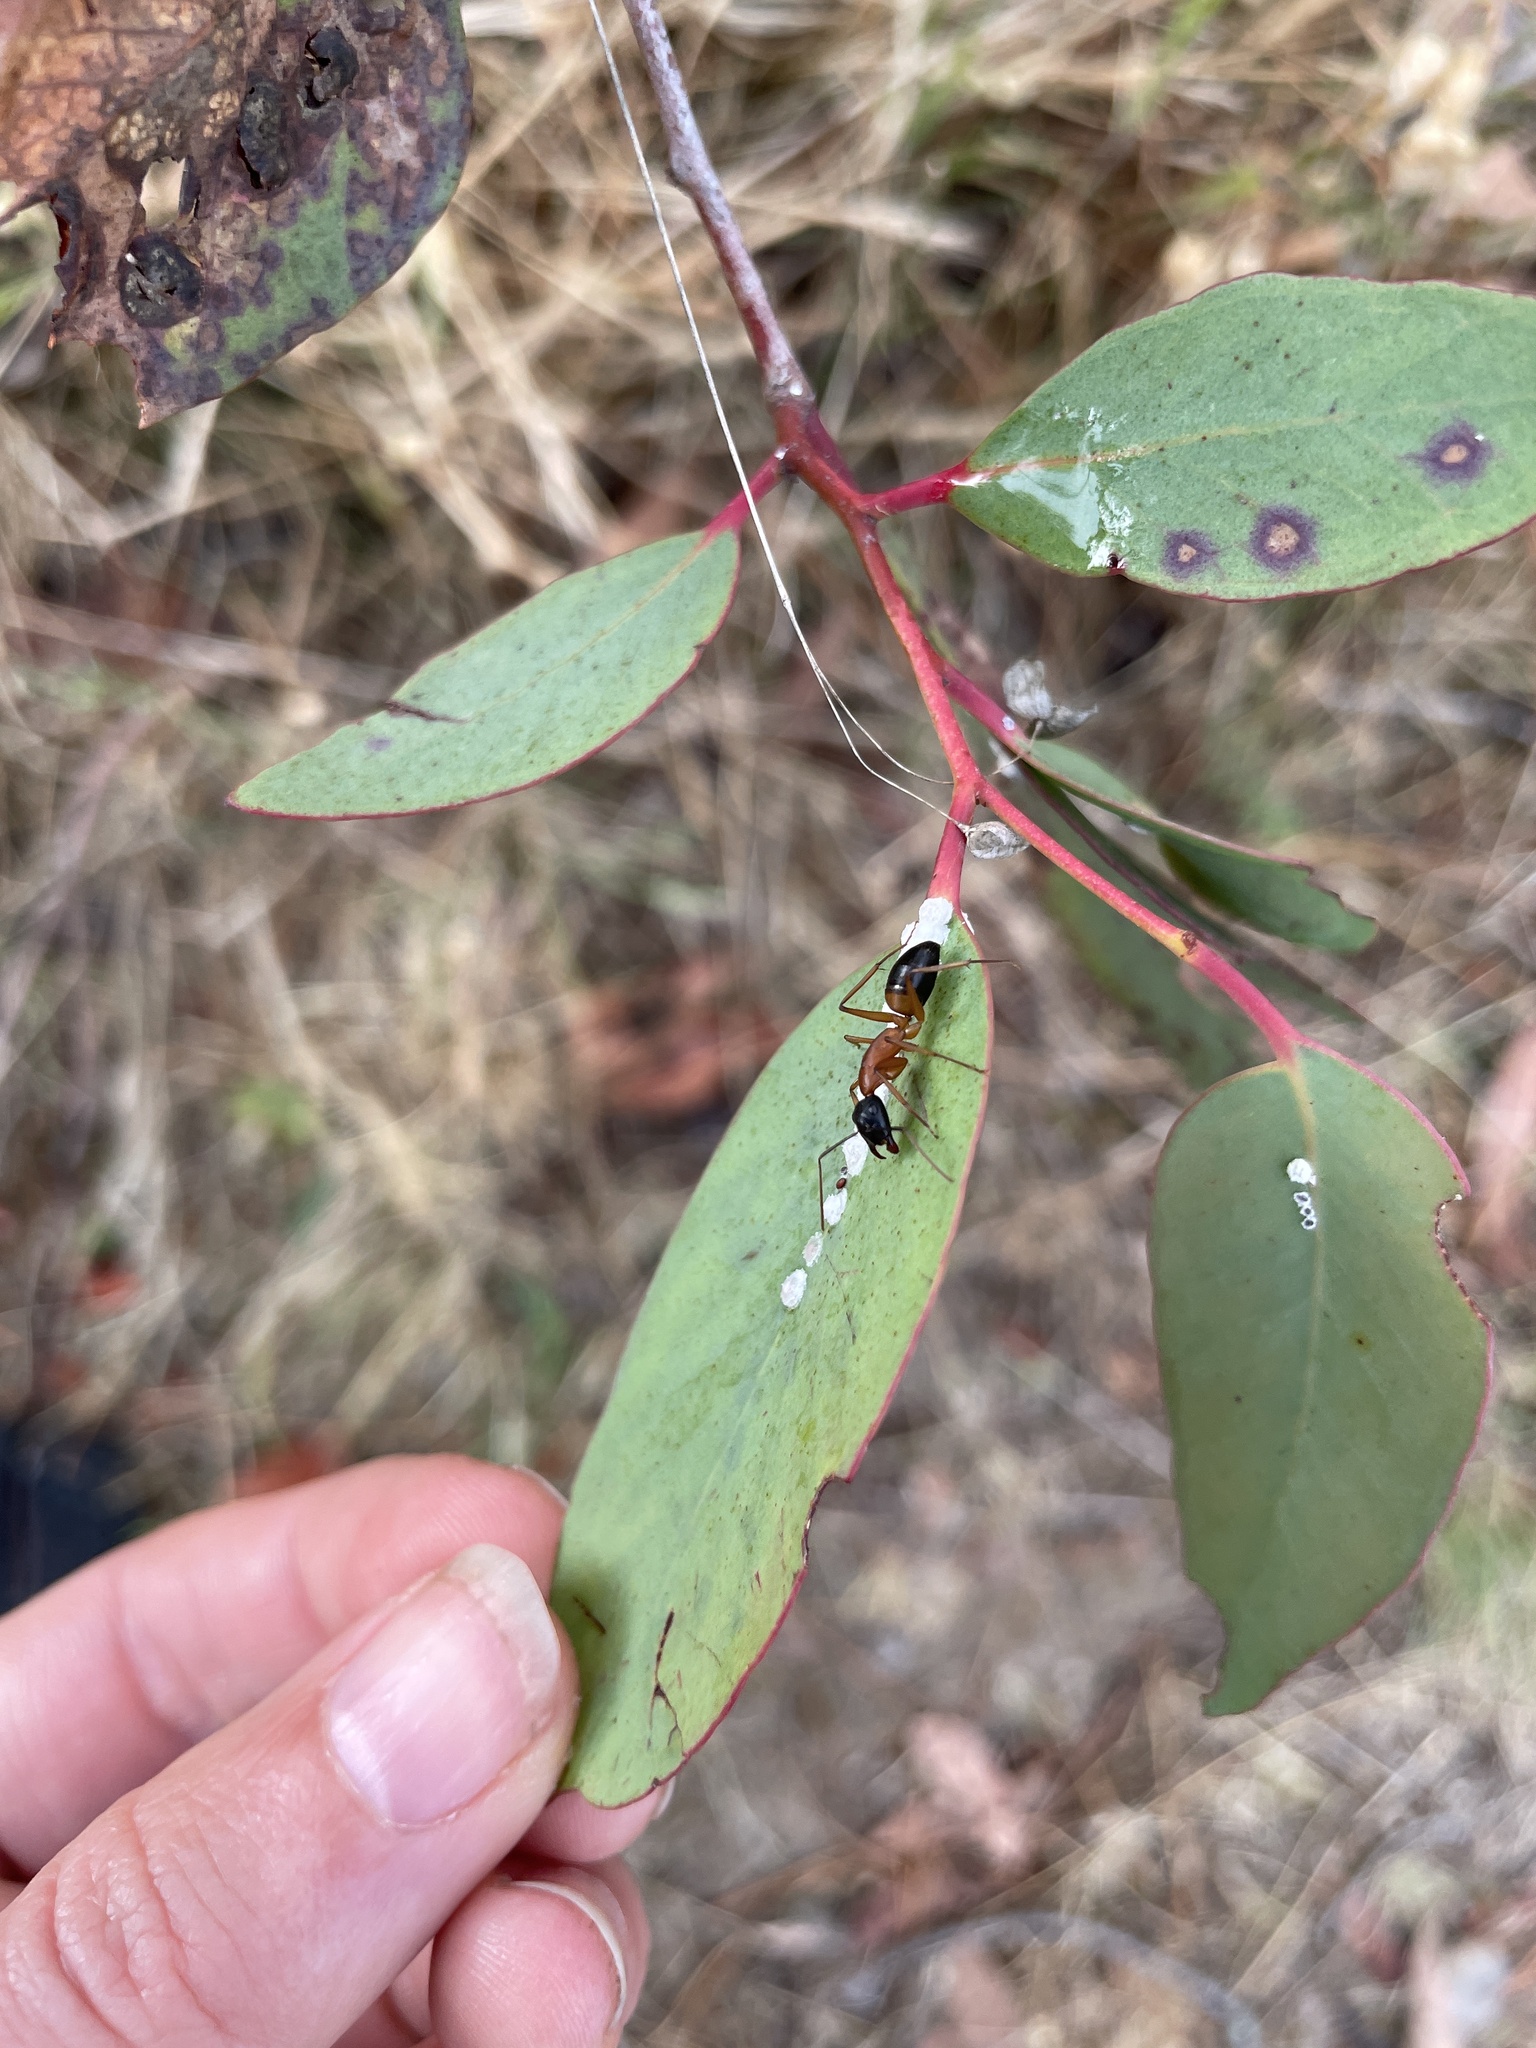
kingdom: Animalia
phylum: Arthropoda
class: Insecta
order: Hymenoptera
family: Formicidae
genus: Camponotus
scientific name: Camponotus consobrinus
